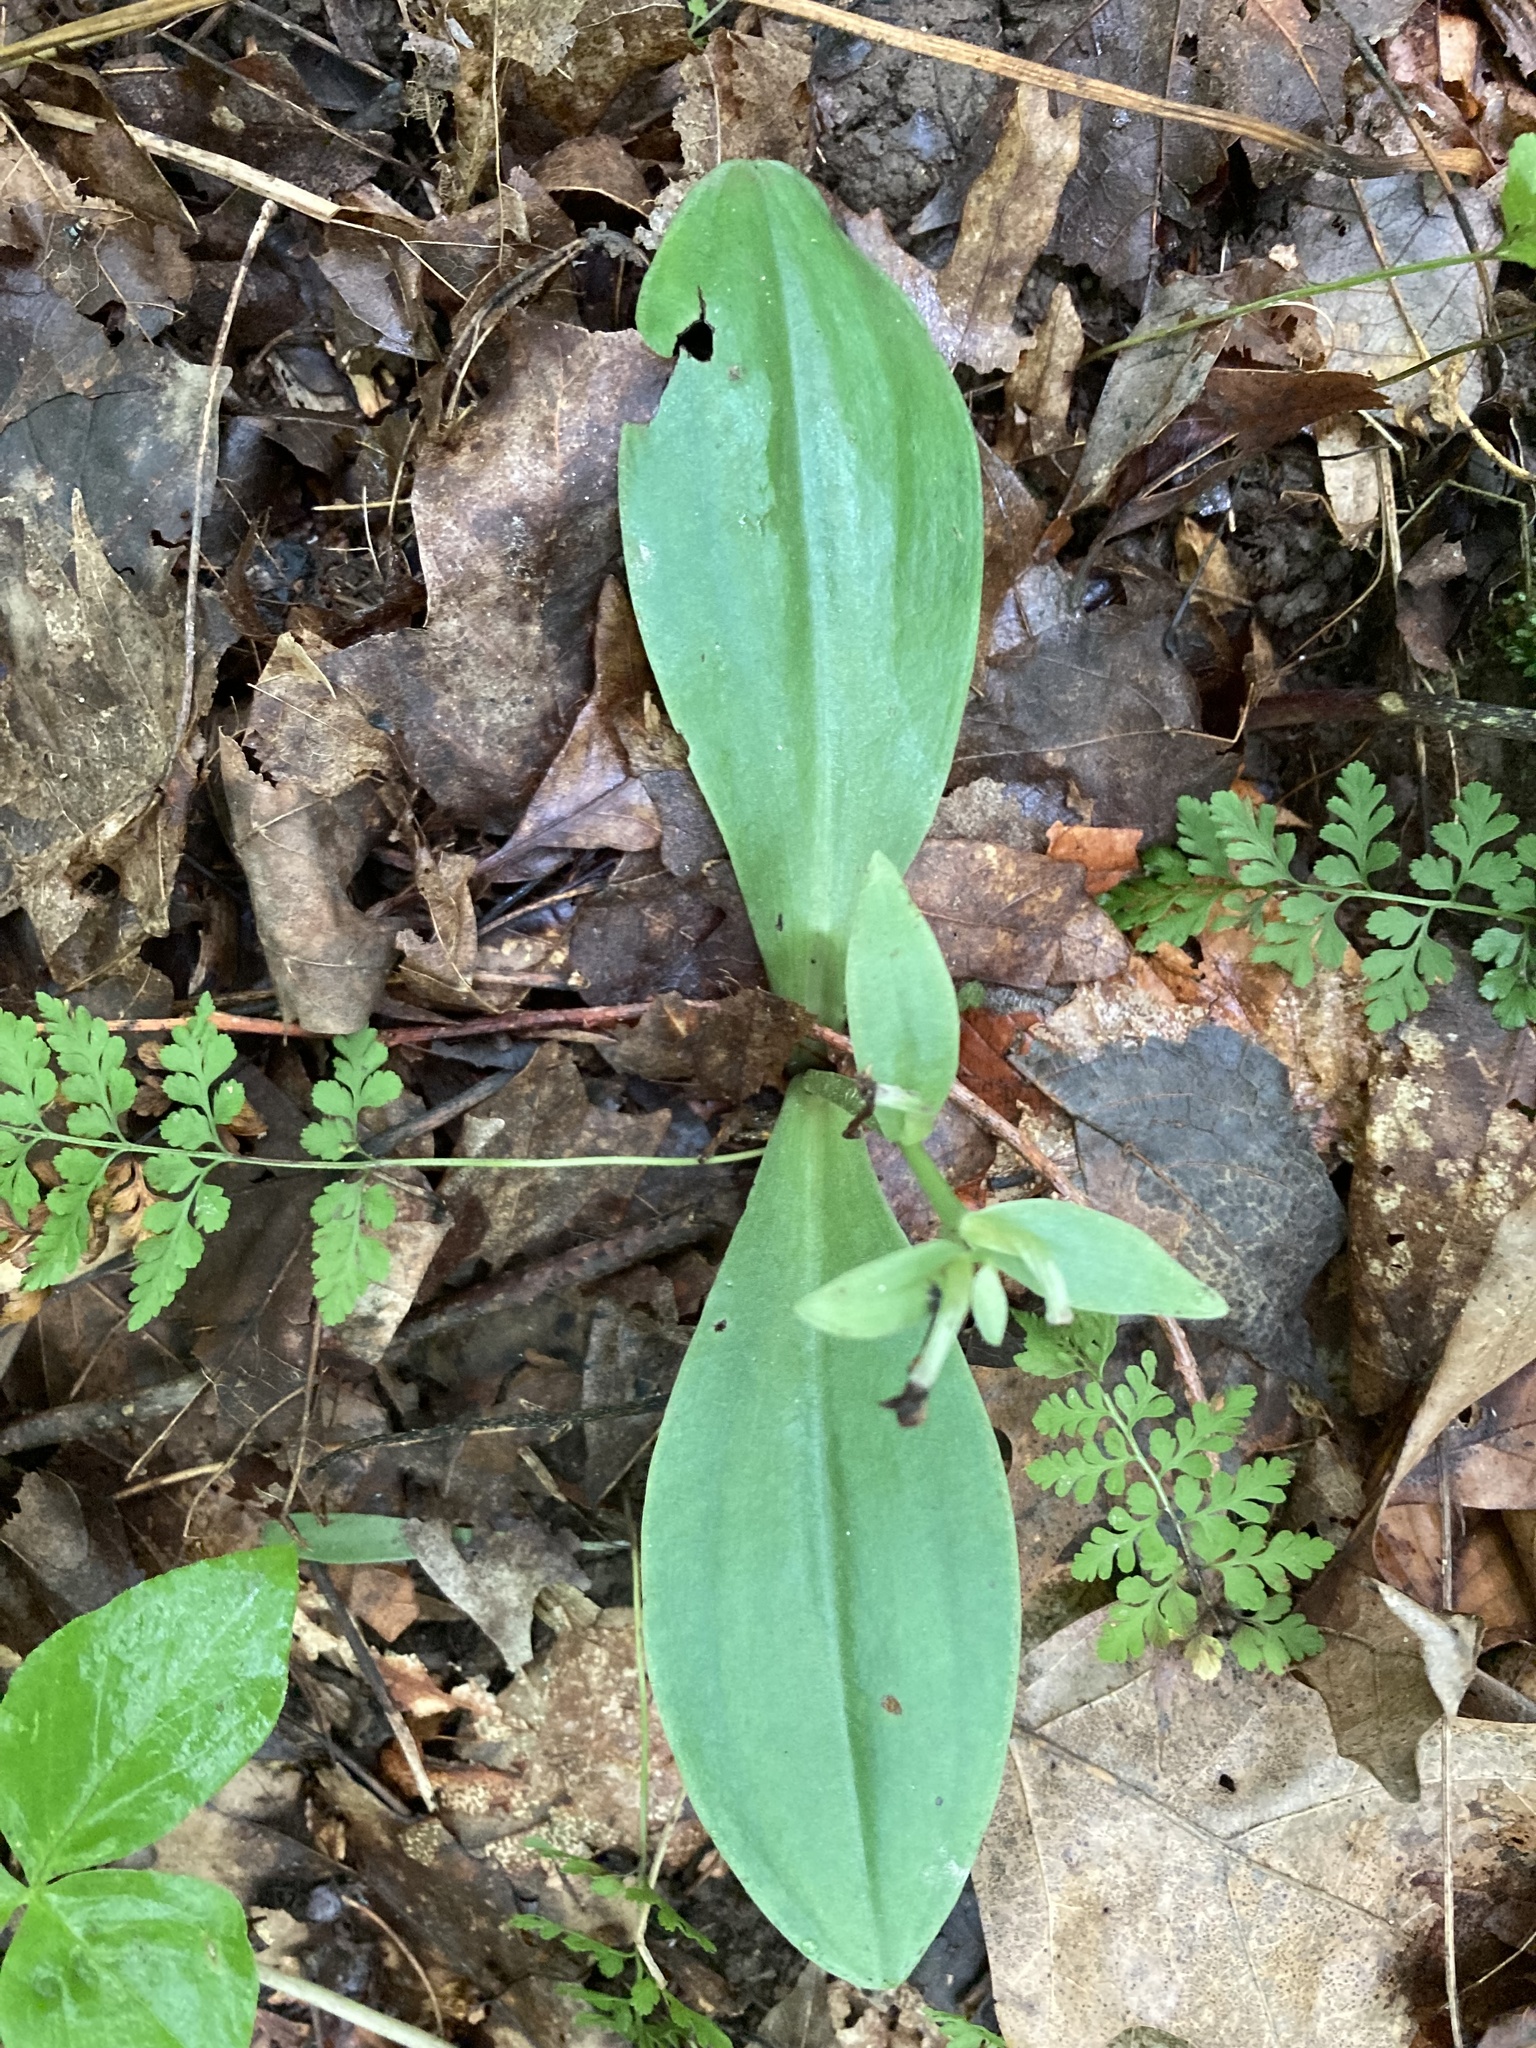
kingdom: Plantae
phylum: Tracheophyta
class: Liliopsida
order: Asparagales
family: Orchidaceae
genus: Galearis
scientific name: Galearis spectabilis
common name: Purple-hooded orchis
